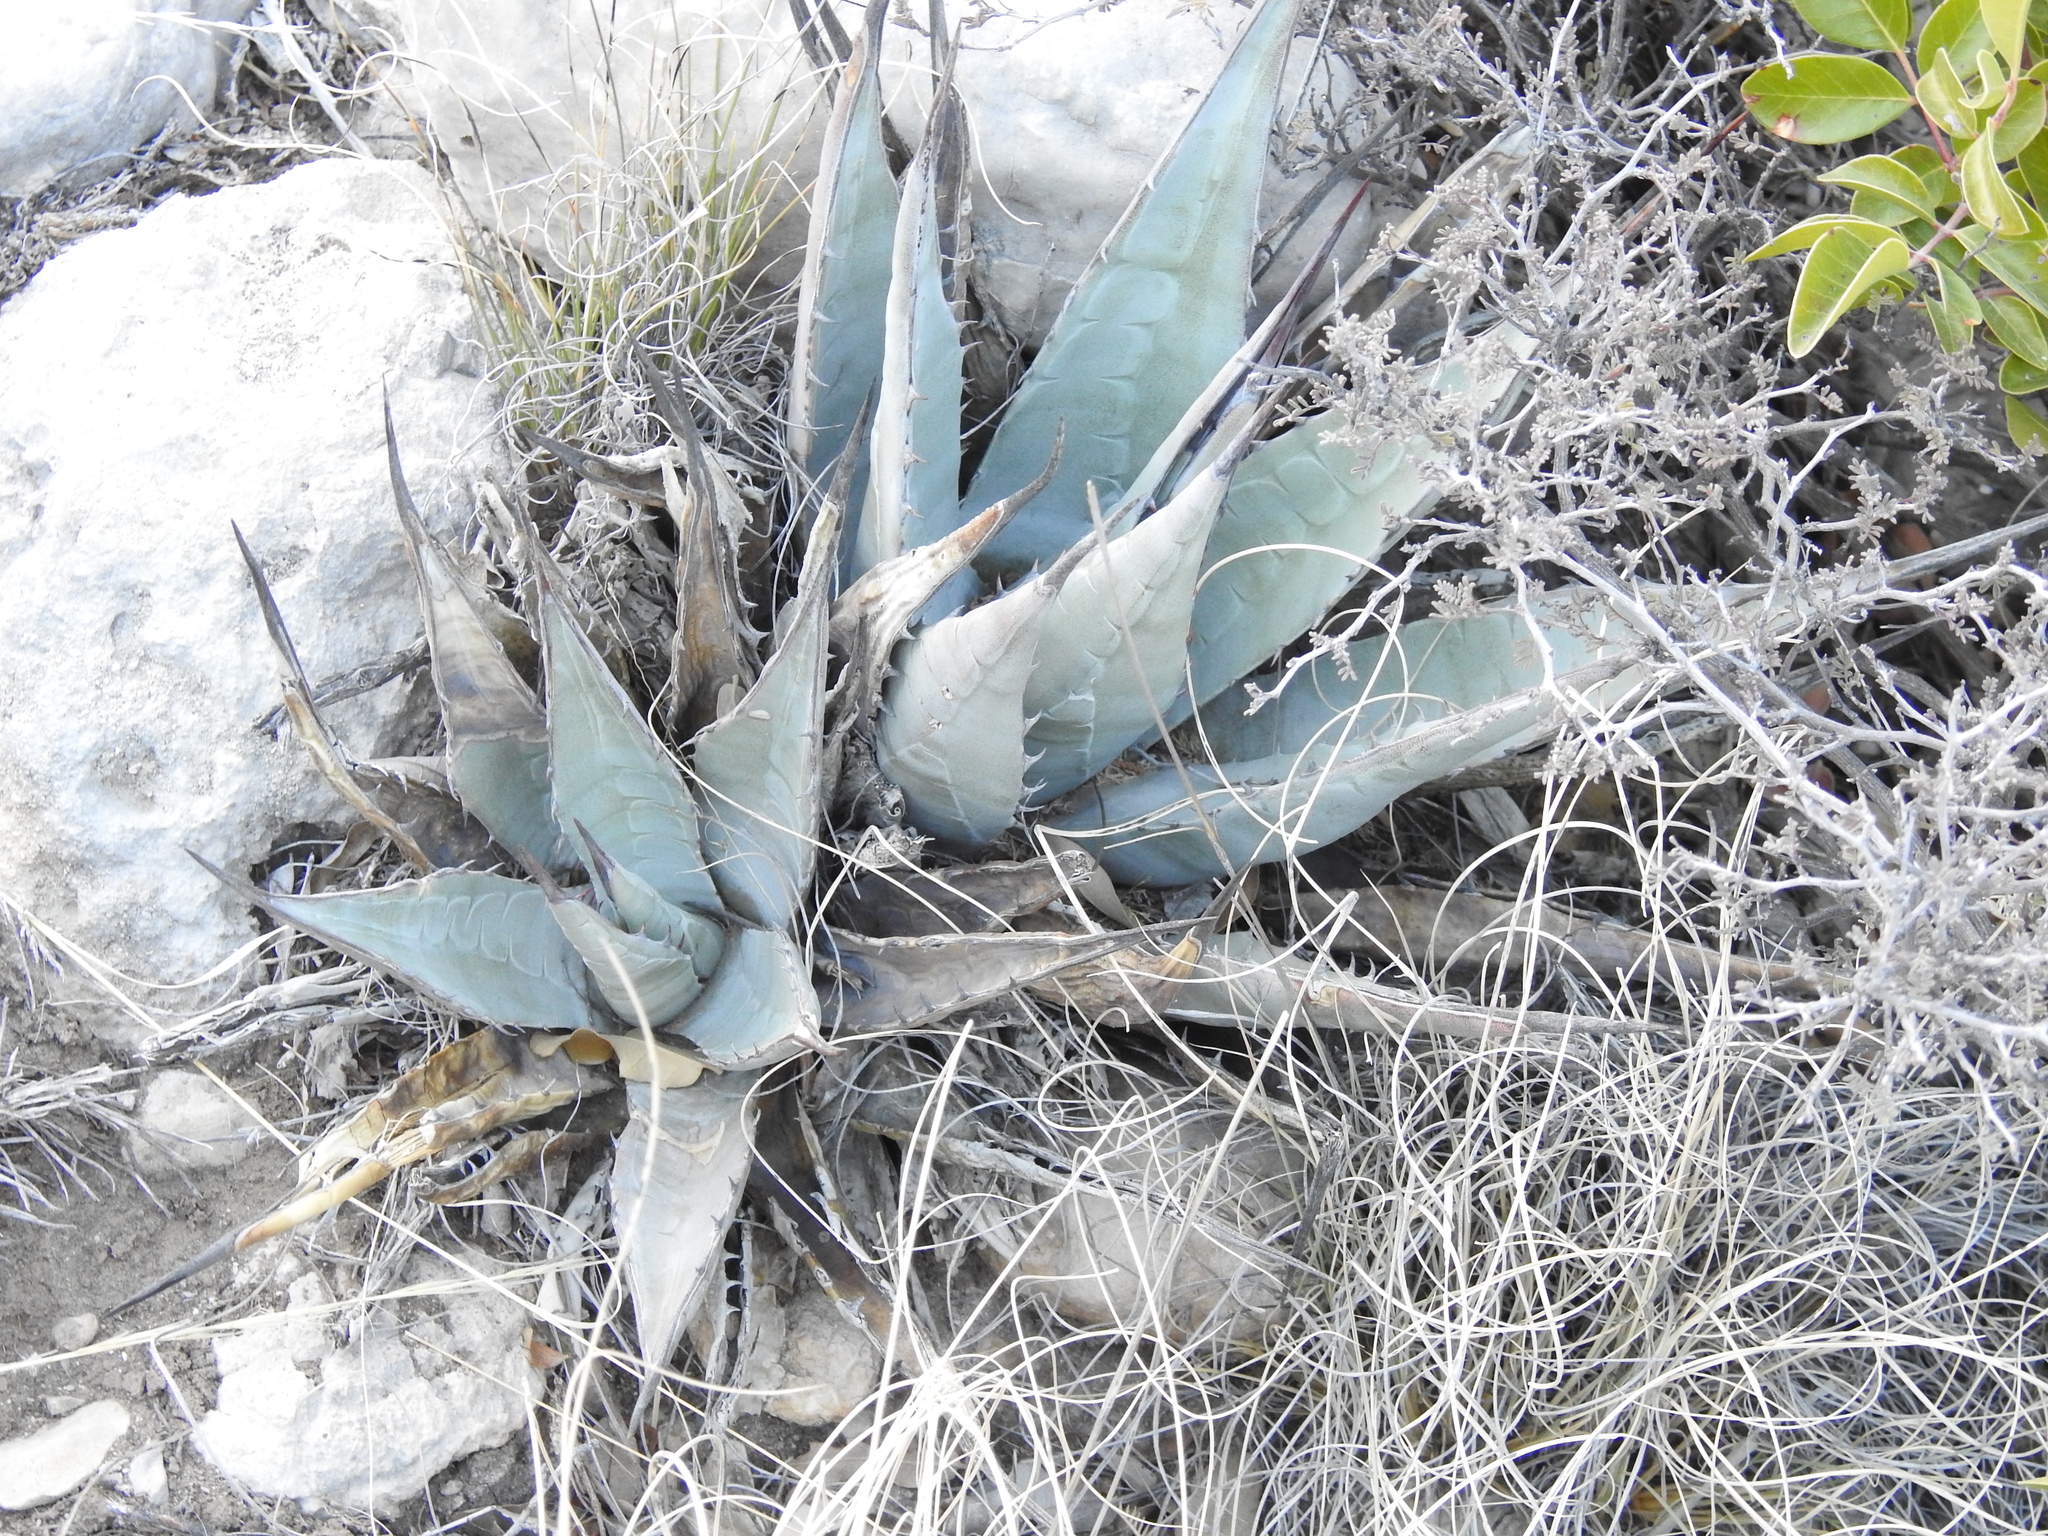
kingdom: Plantae
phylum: Tracheophyta
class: Liliopsida
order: Asparagales
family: Asparagaceae
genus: Agave
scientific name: Agave parryi
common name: Parry's agave
